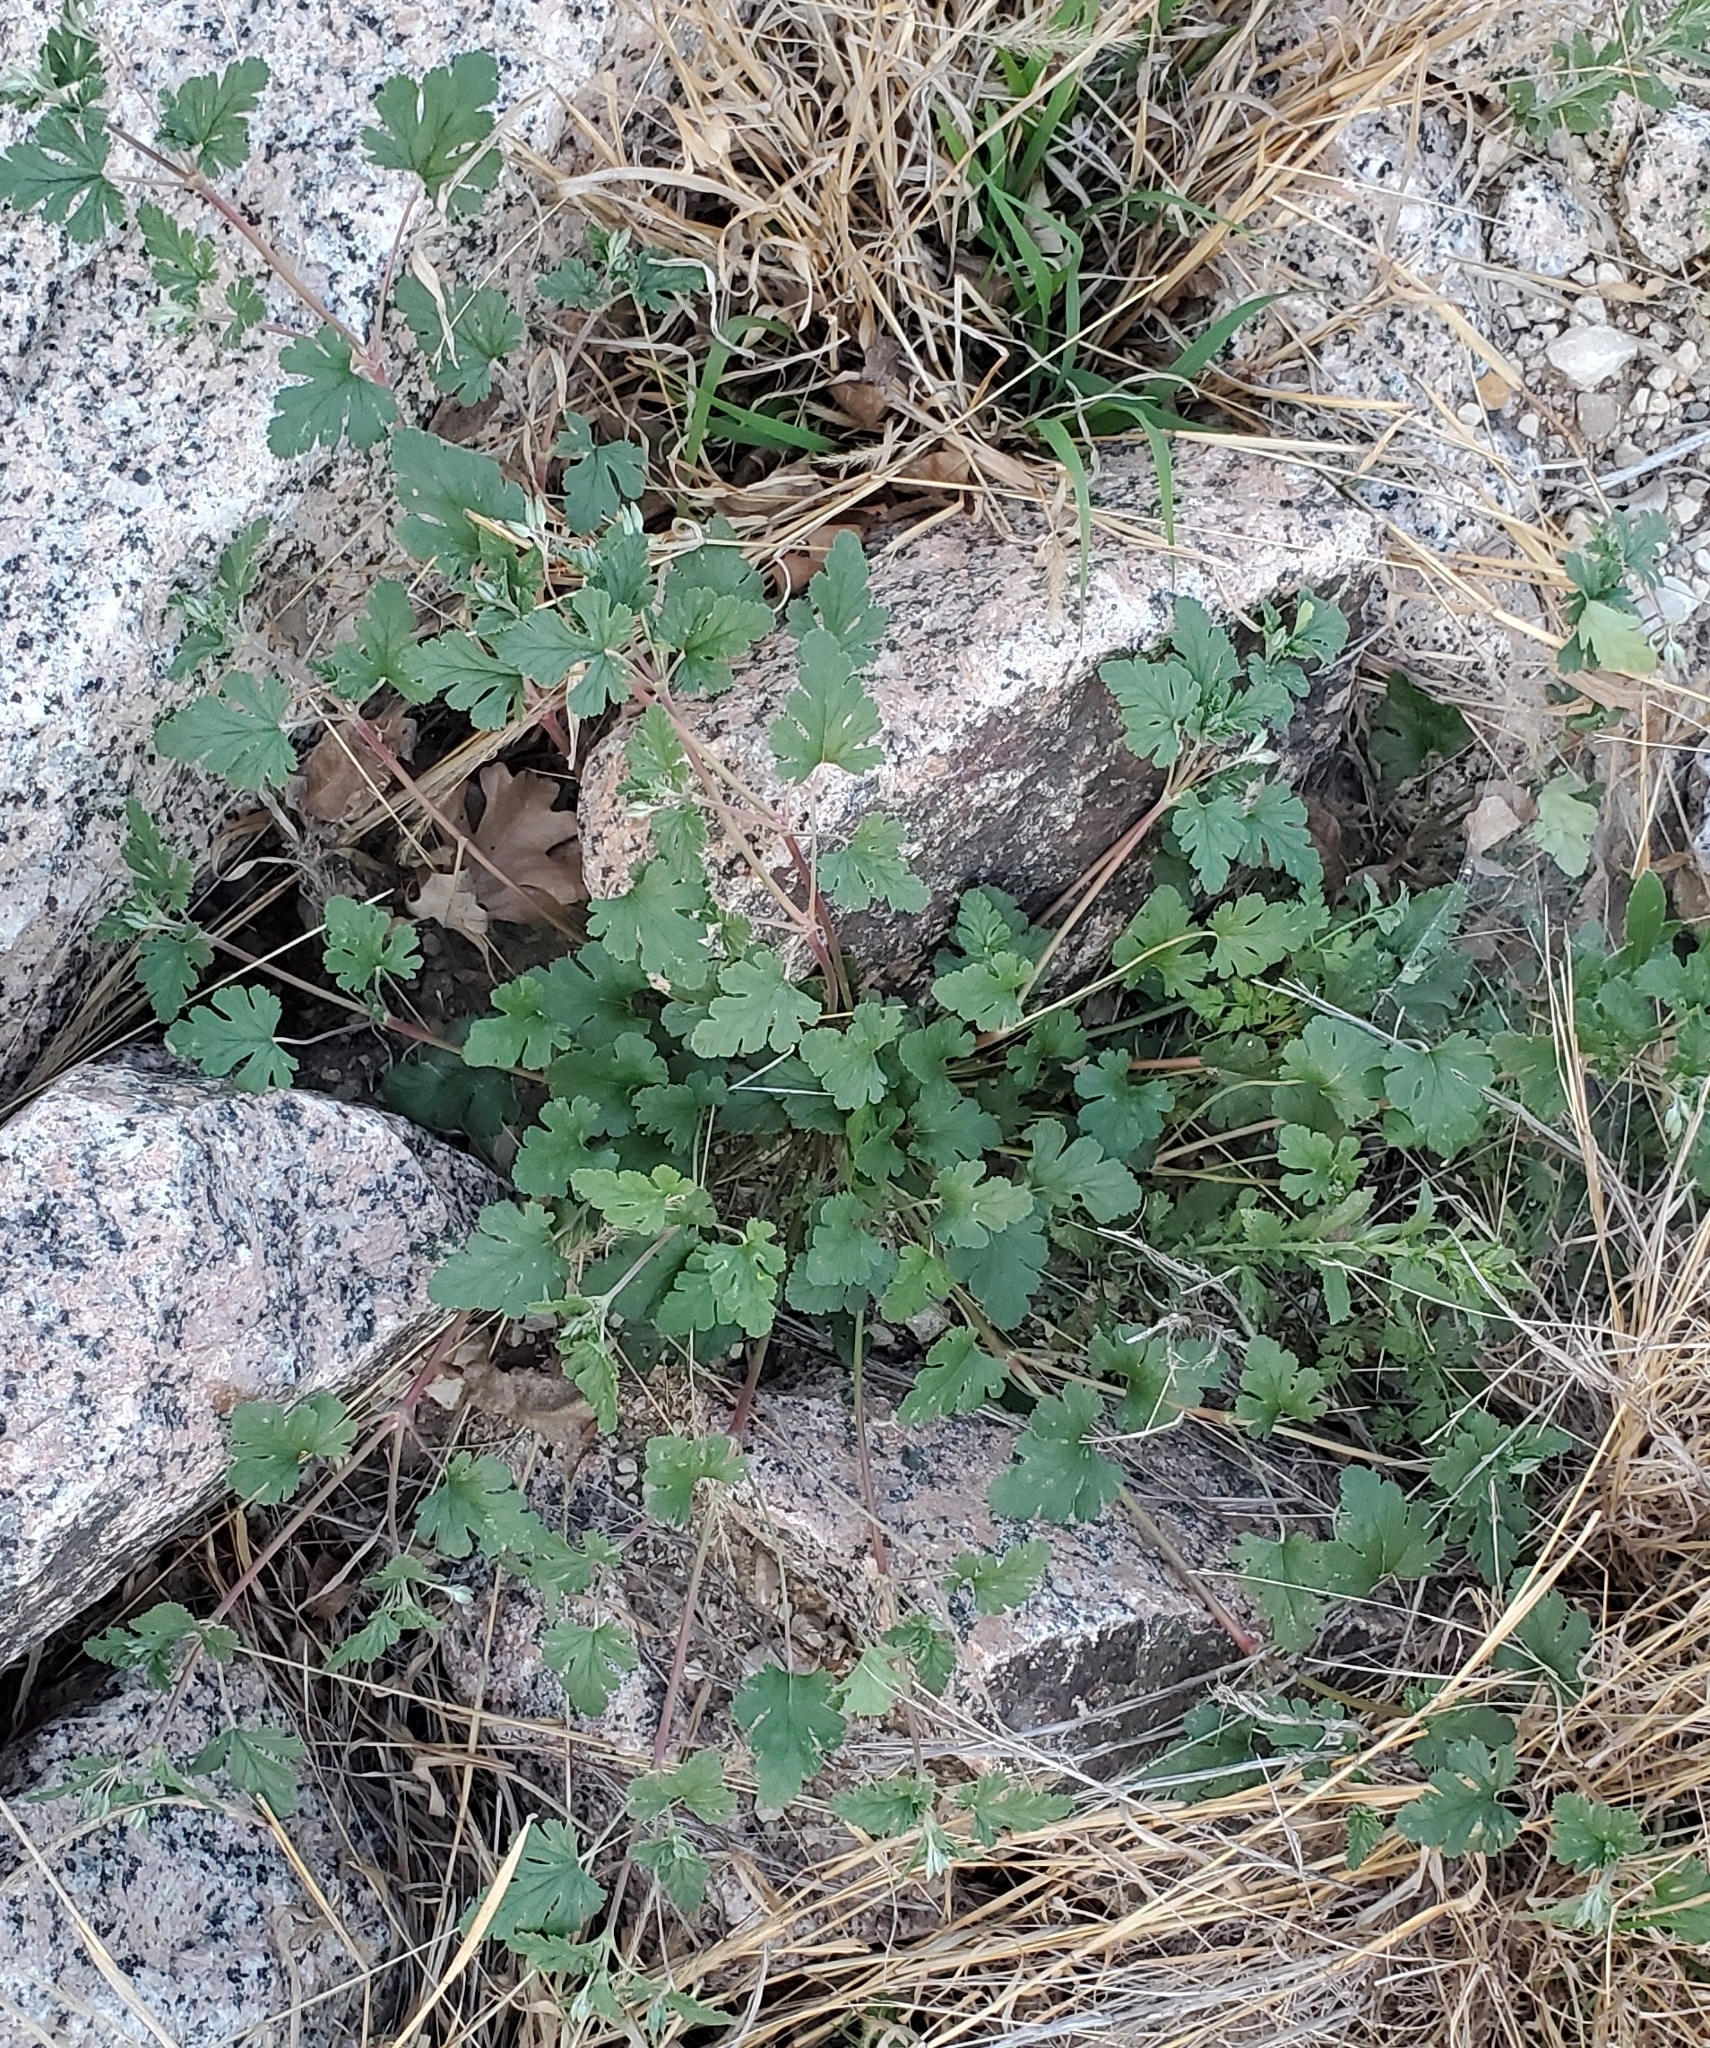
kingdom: Plantae
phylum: Tracheophyta
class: Magnoliopsida
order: Geraniales
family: Geraniaceae
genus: Erodium
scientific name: Erodium texanum
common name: Texas stork's-bill
